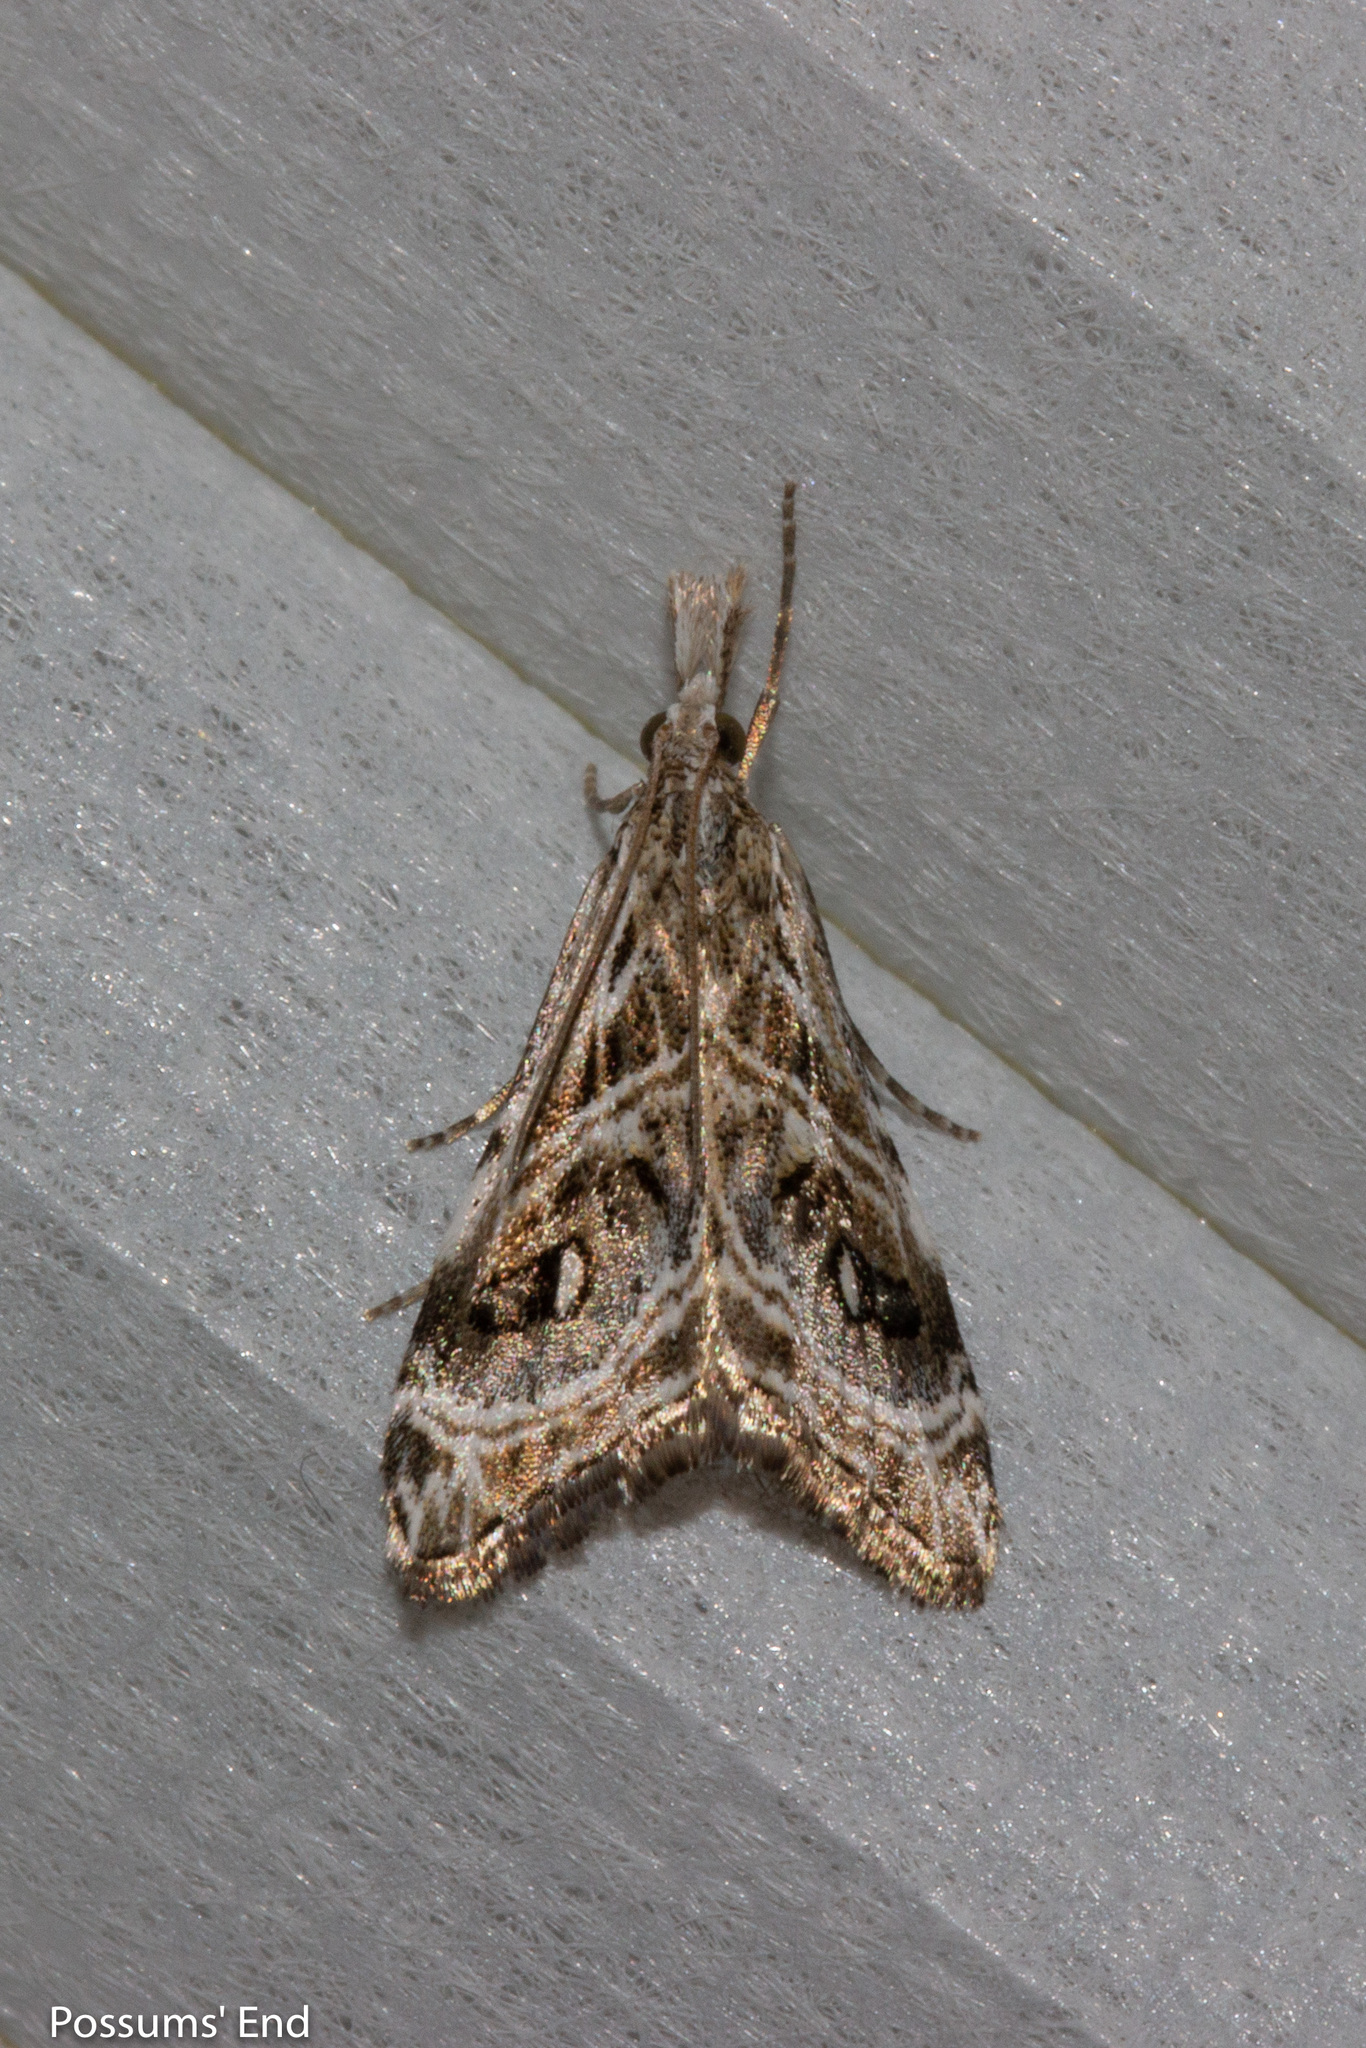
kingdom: Animalia
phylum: Arthropoda
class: Insecta
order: Lepidoptera
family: Crambidae
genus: Gadira
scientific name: Gadira acerella
